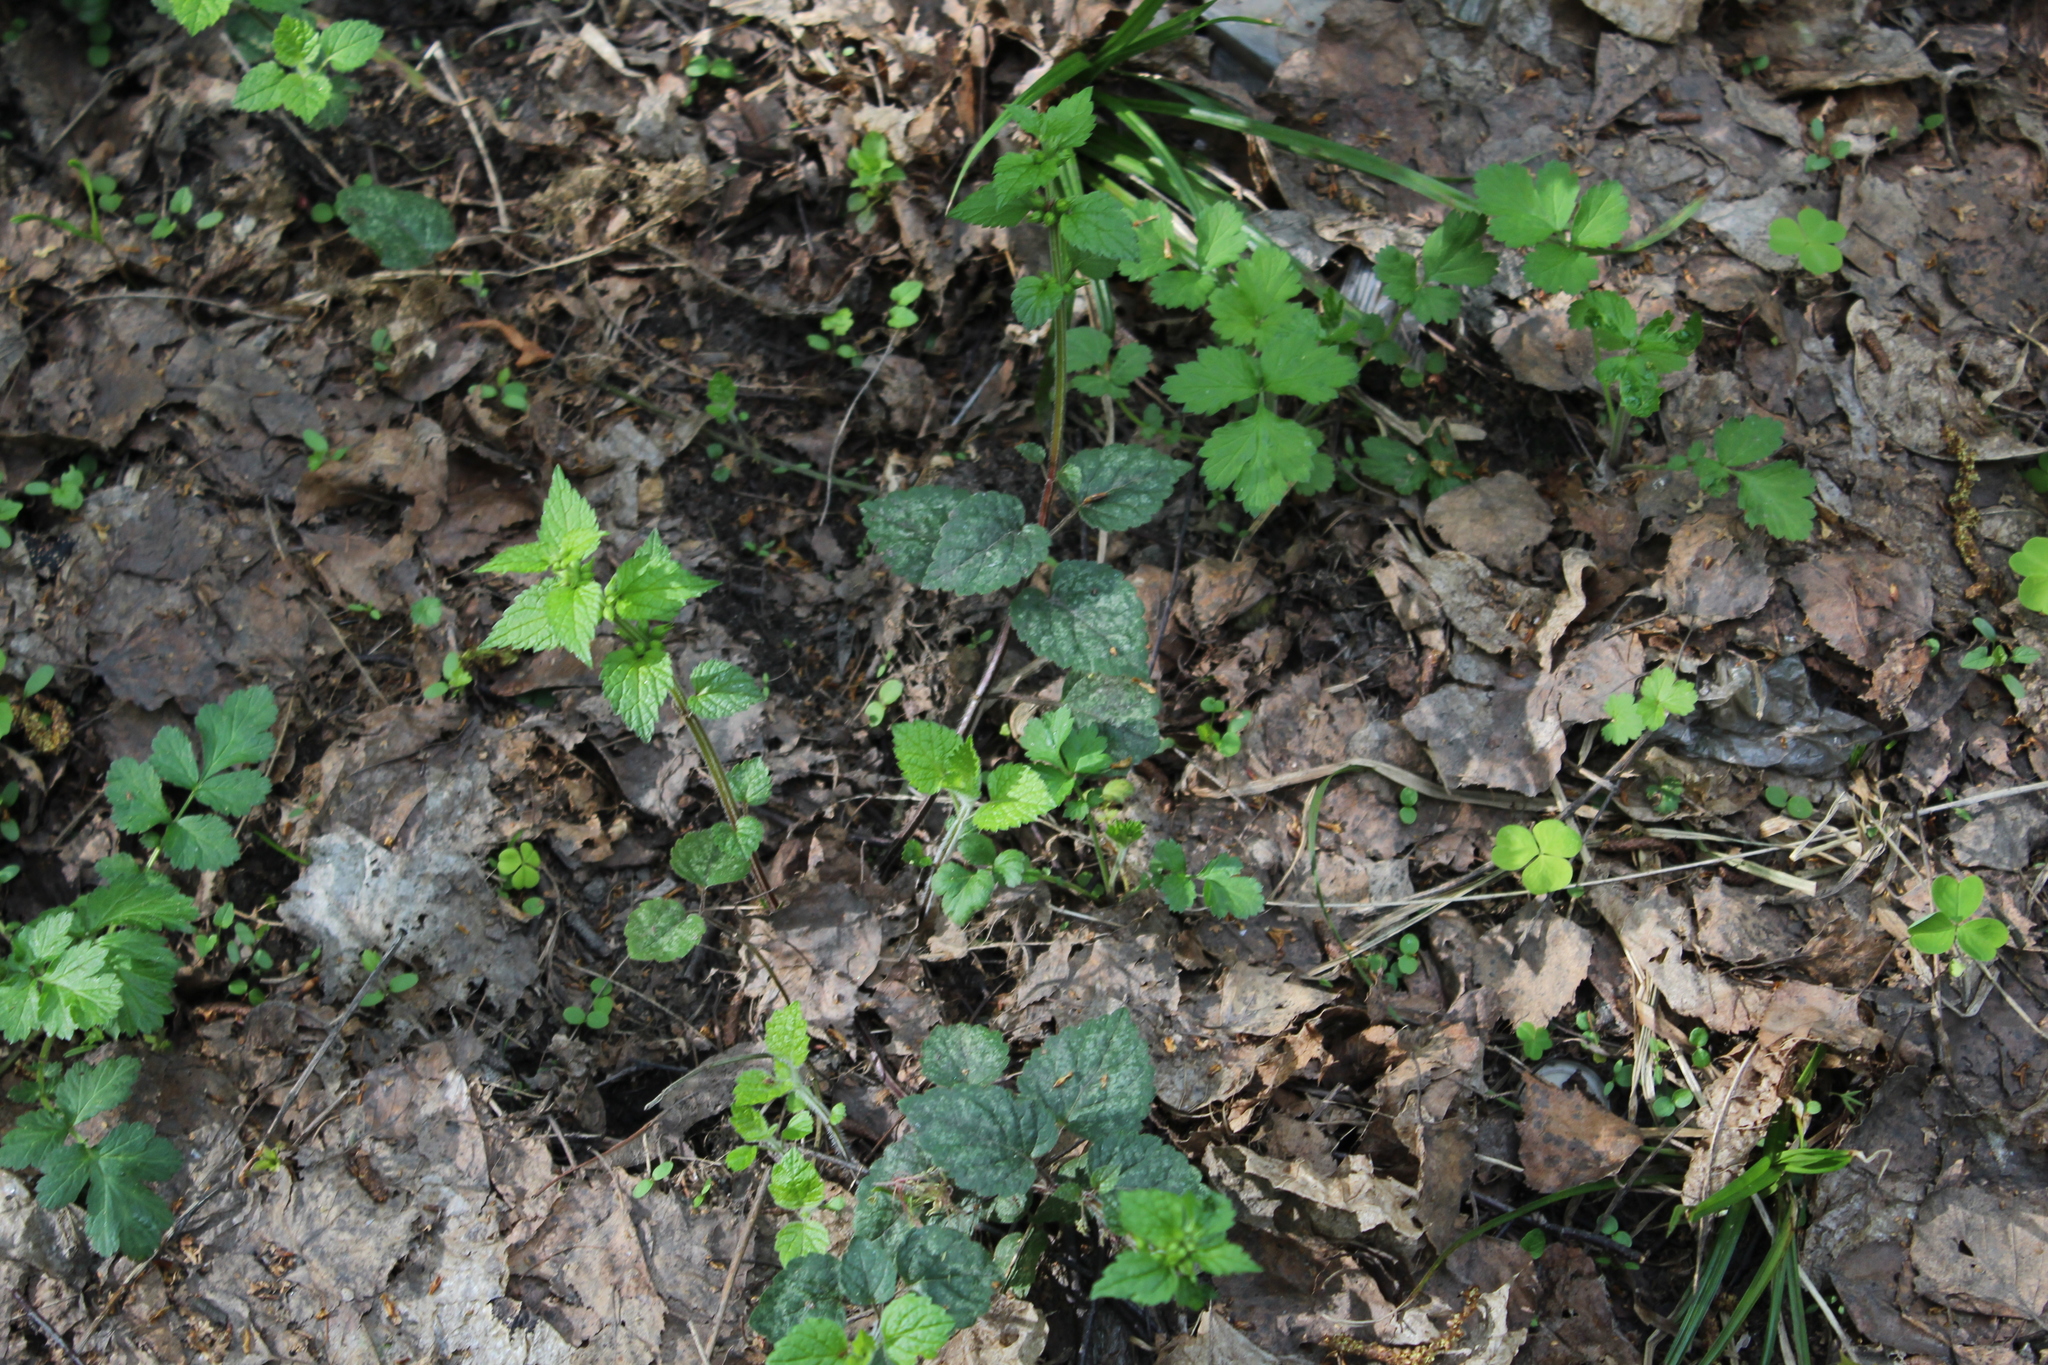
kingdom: Plantae
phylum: Tracheophyta
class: Magnoliopsida
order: Lamiales
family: Lamiaceae
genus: Lamium
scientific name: Lamium galeobdolon
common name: Yellow archangel
